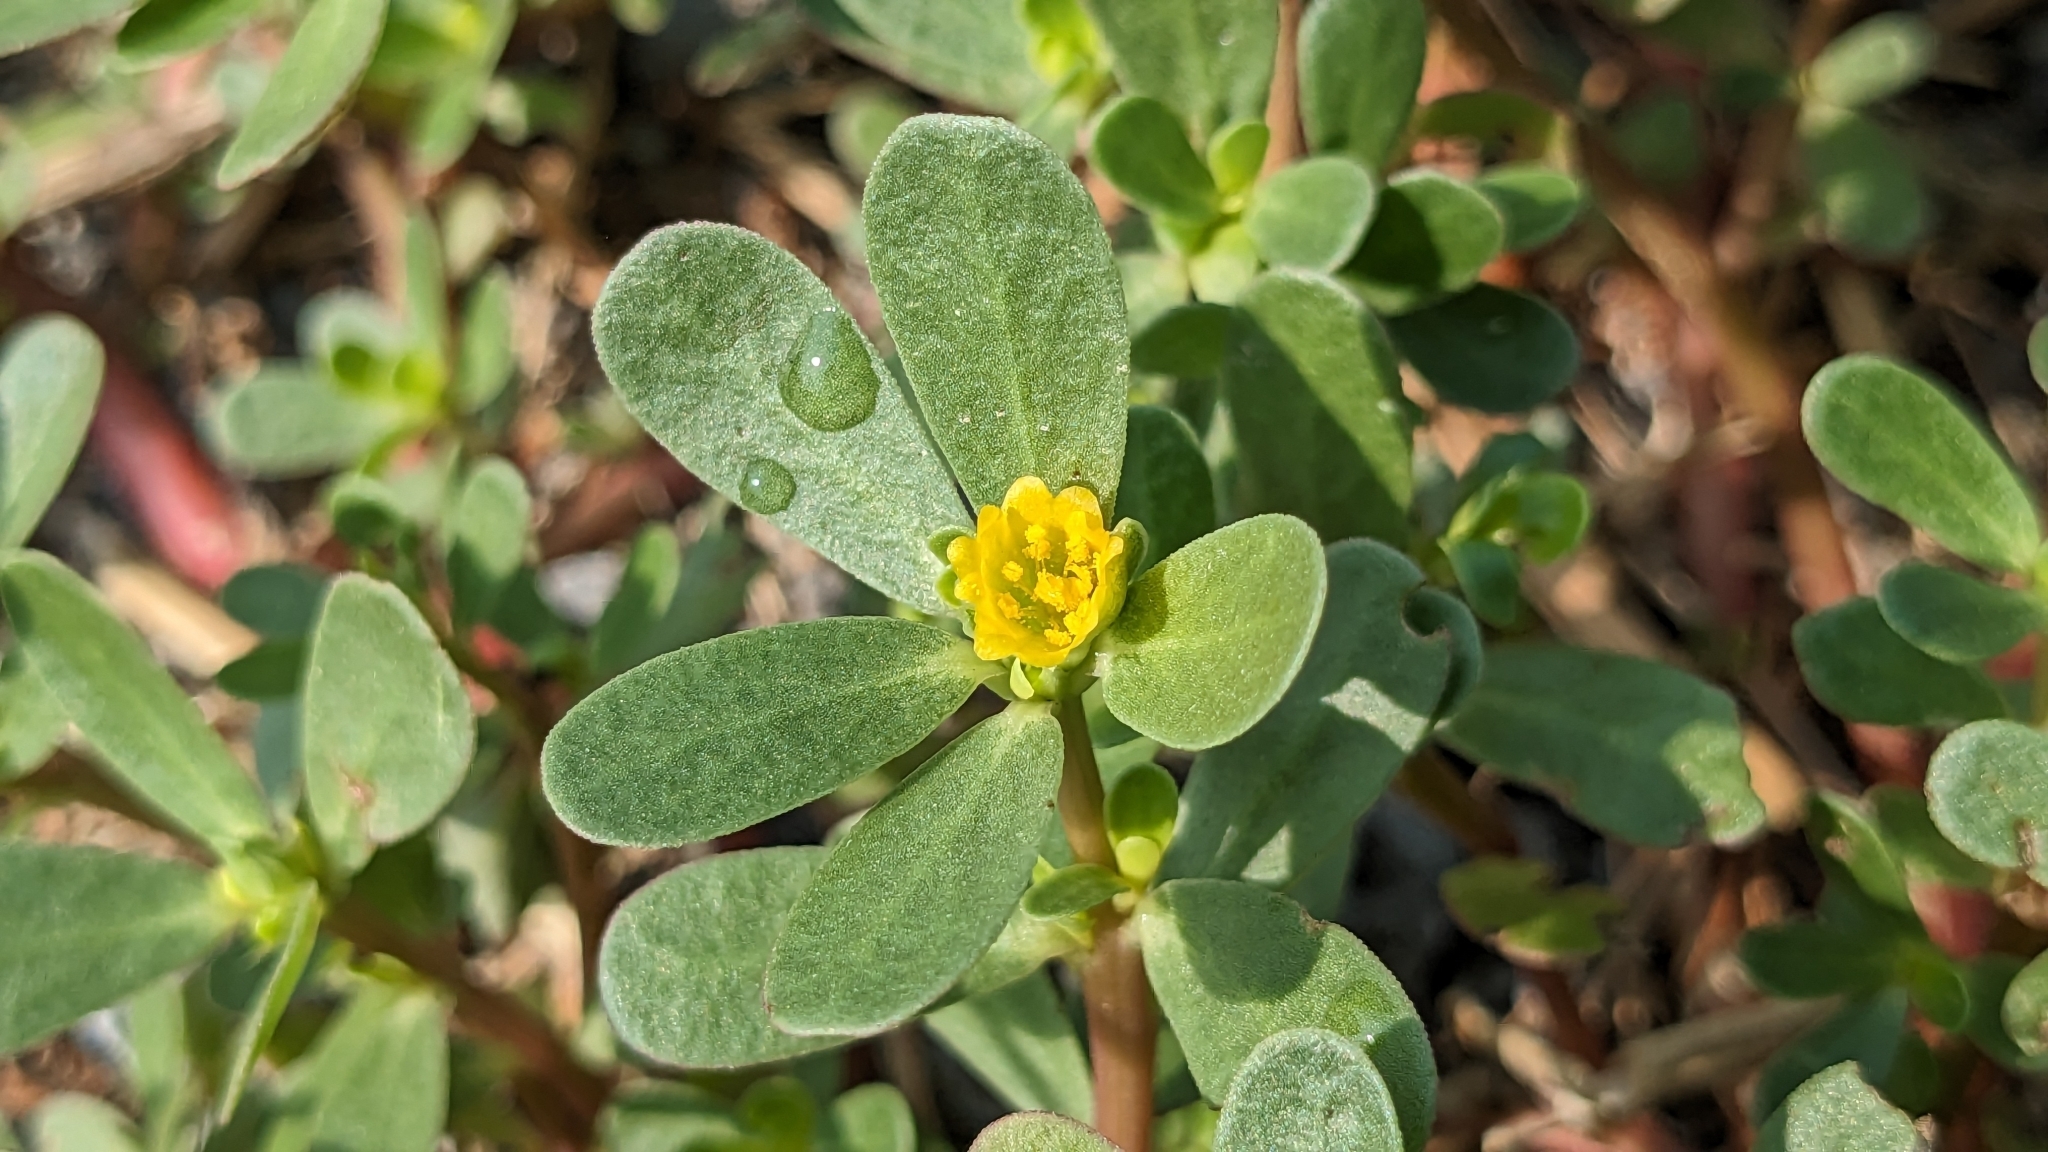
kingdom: Plantae
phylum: Tracheophyta
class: Magnoliopsida
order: Caryophyllales
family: Portulacaceae
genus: Portulaca
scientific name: Portulaca oleracea
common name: Common purslane
